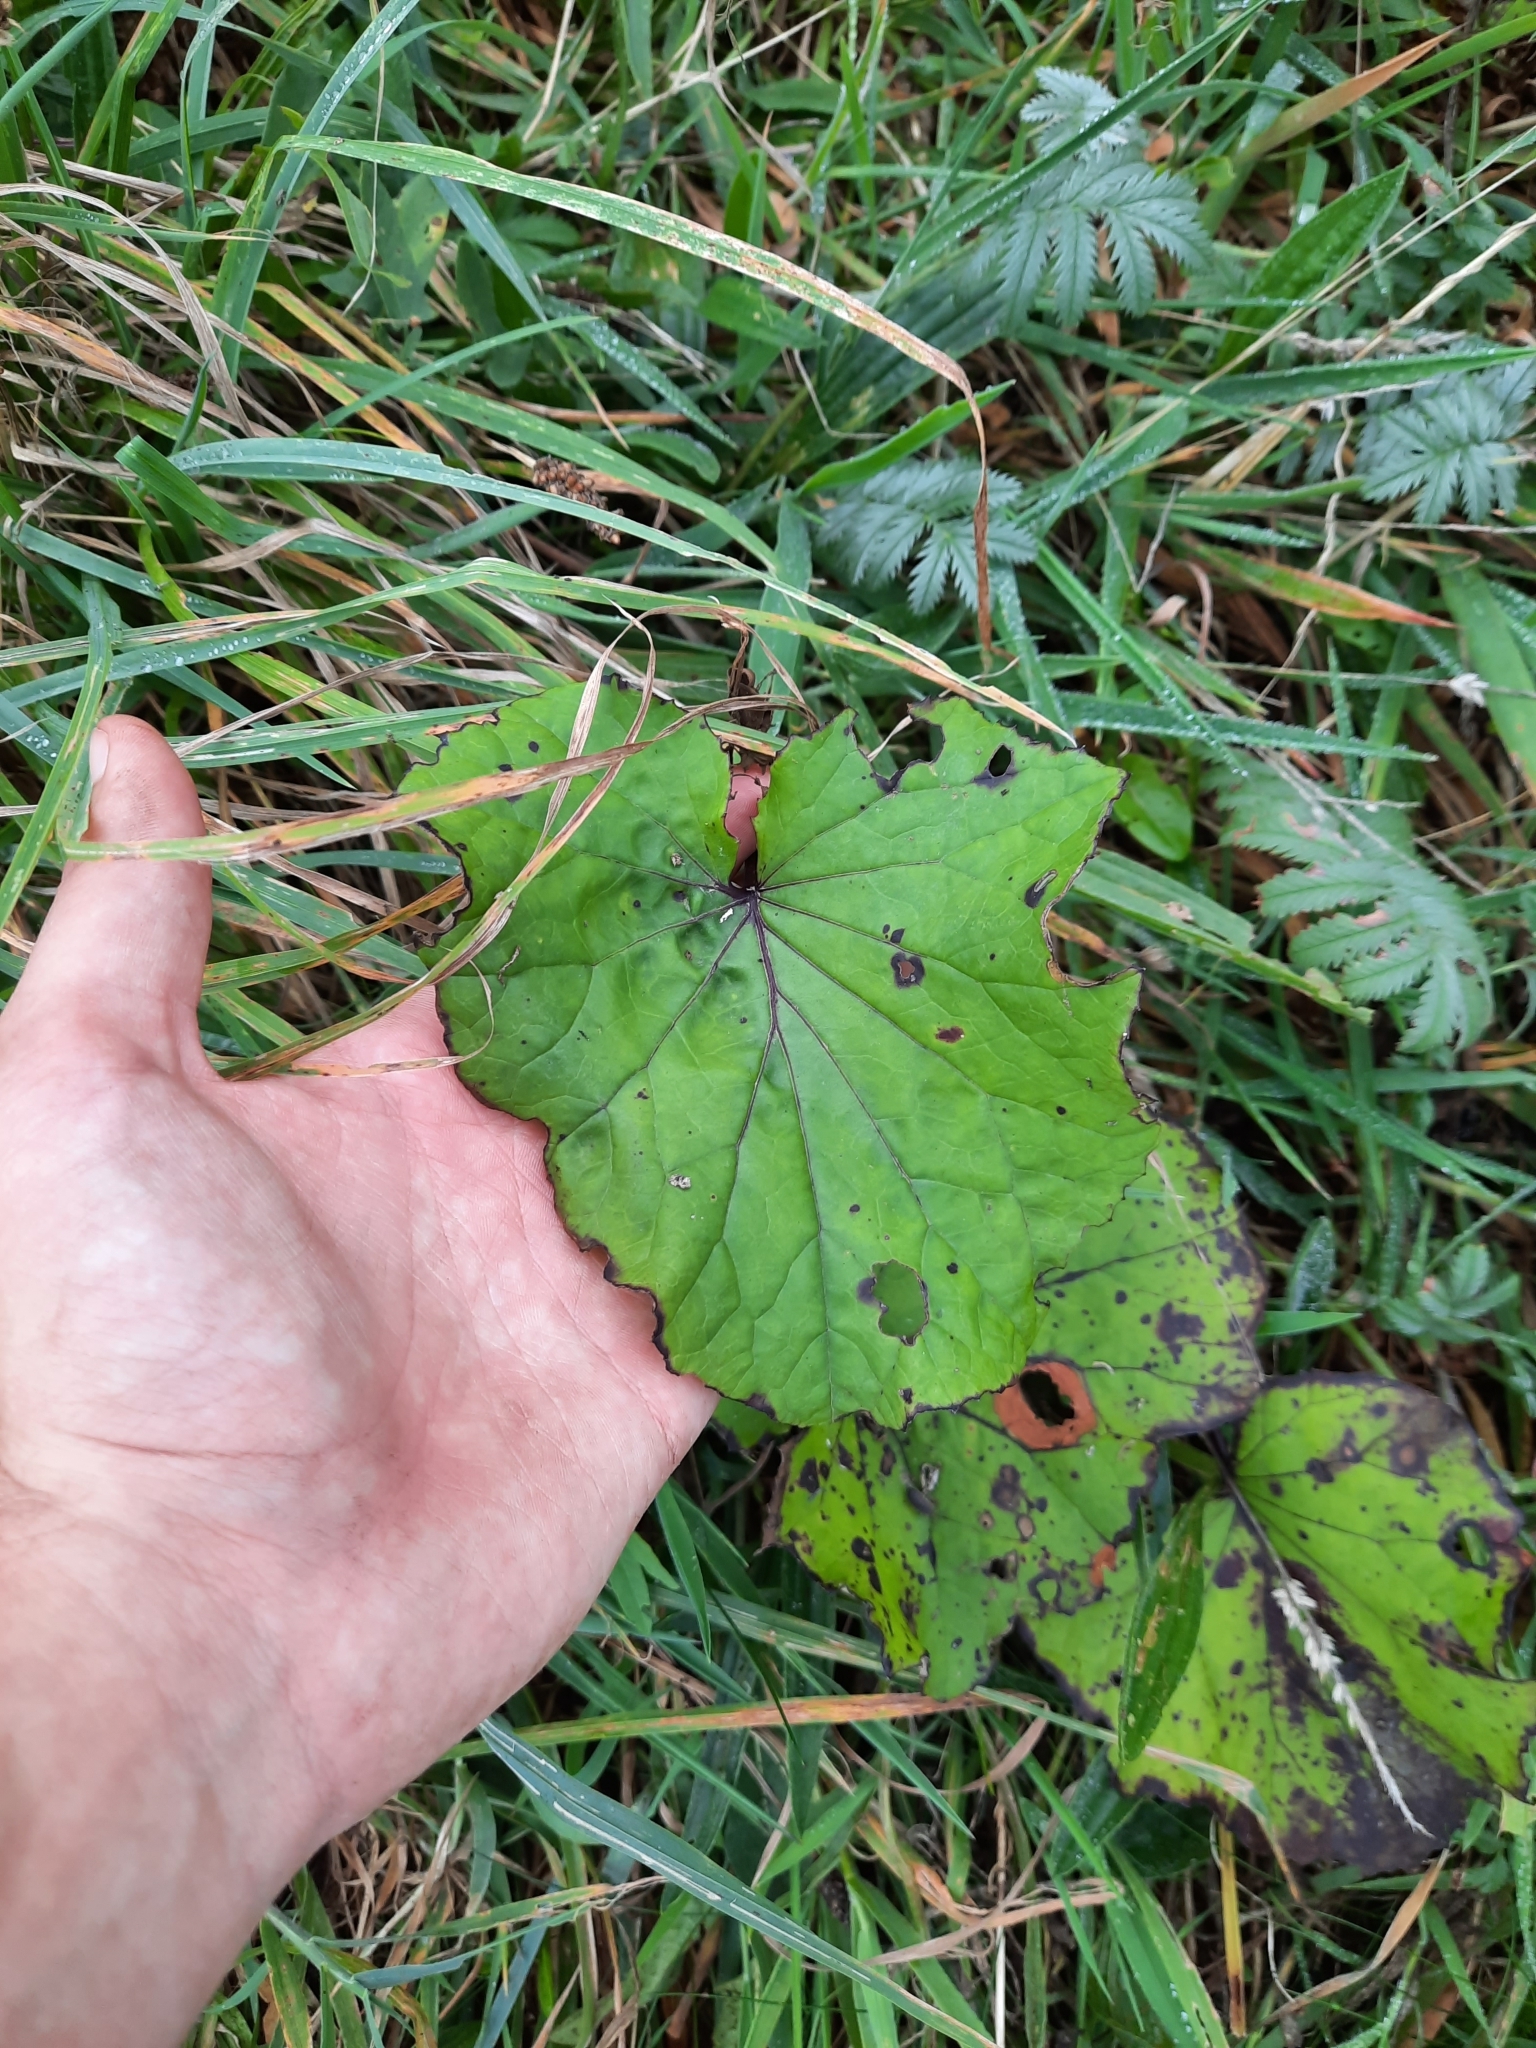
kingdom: Plantae
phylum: Tracheophyta
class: Magnoliopsida
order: Asterales
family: Asteraceae
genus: Tussilago
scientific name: Tussilago farfara
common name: Coltsfoot
